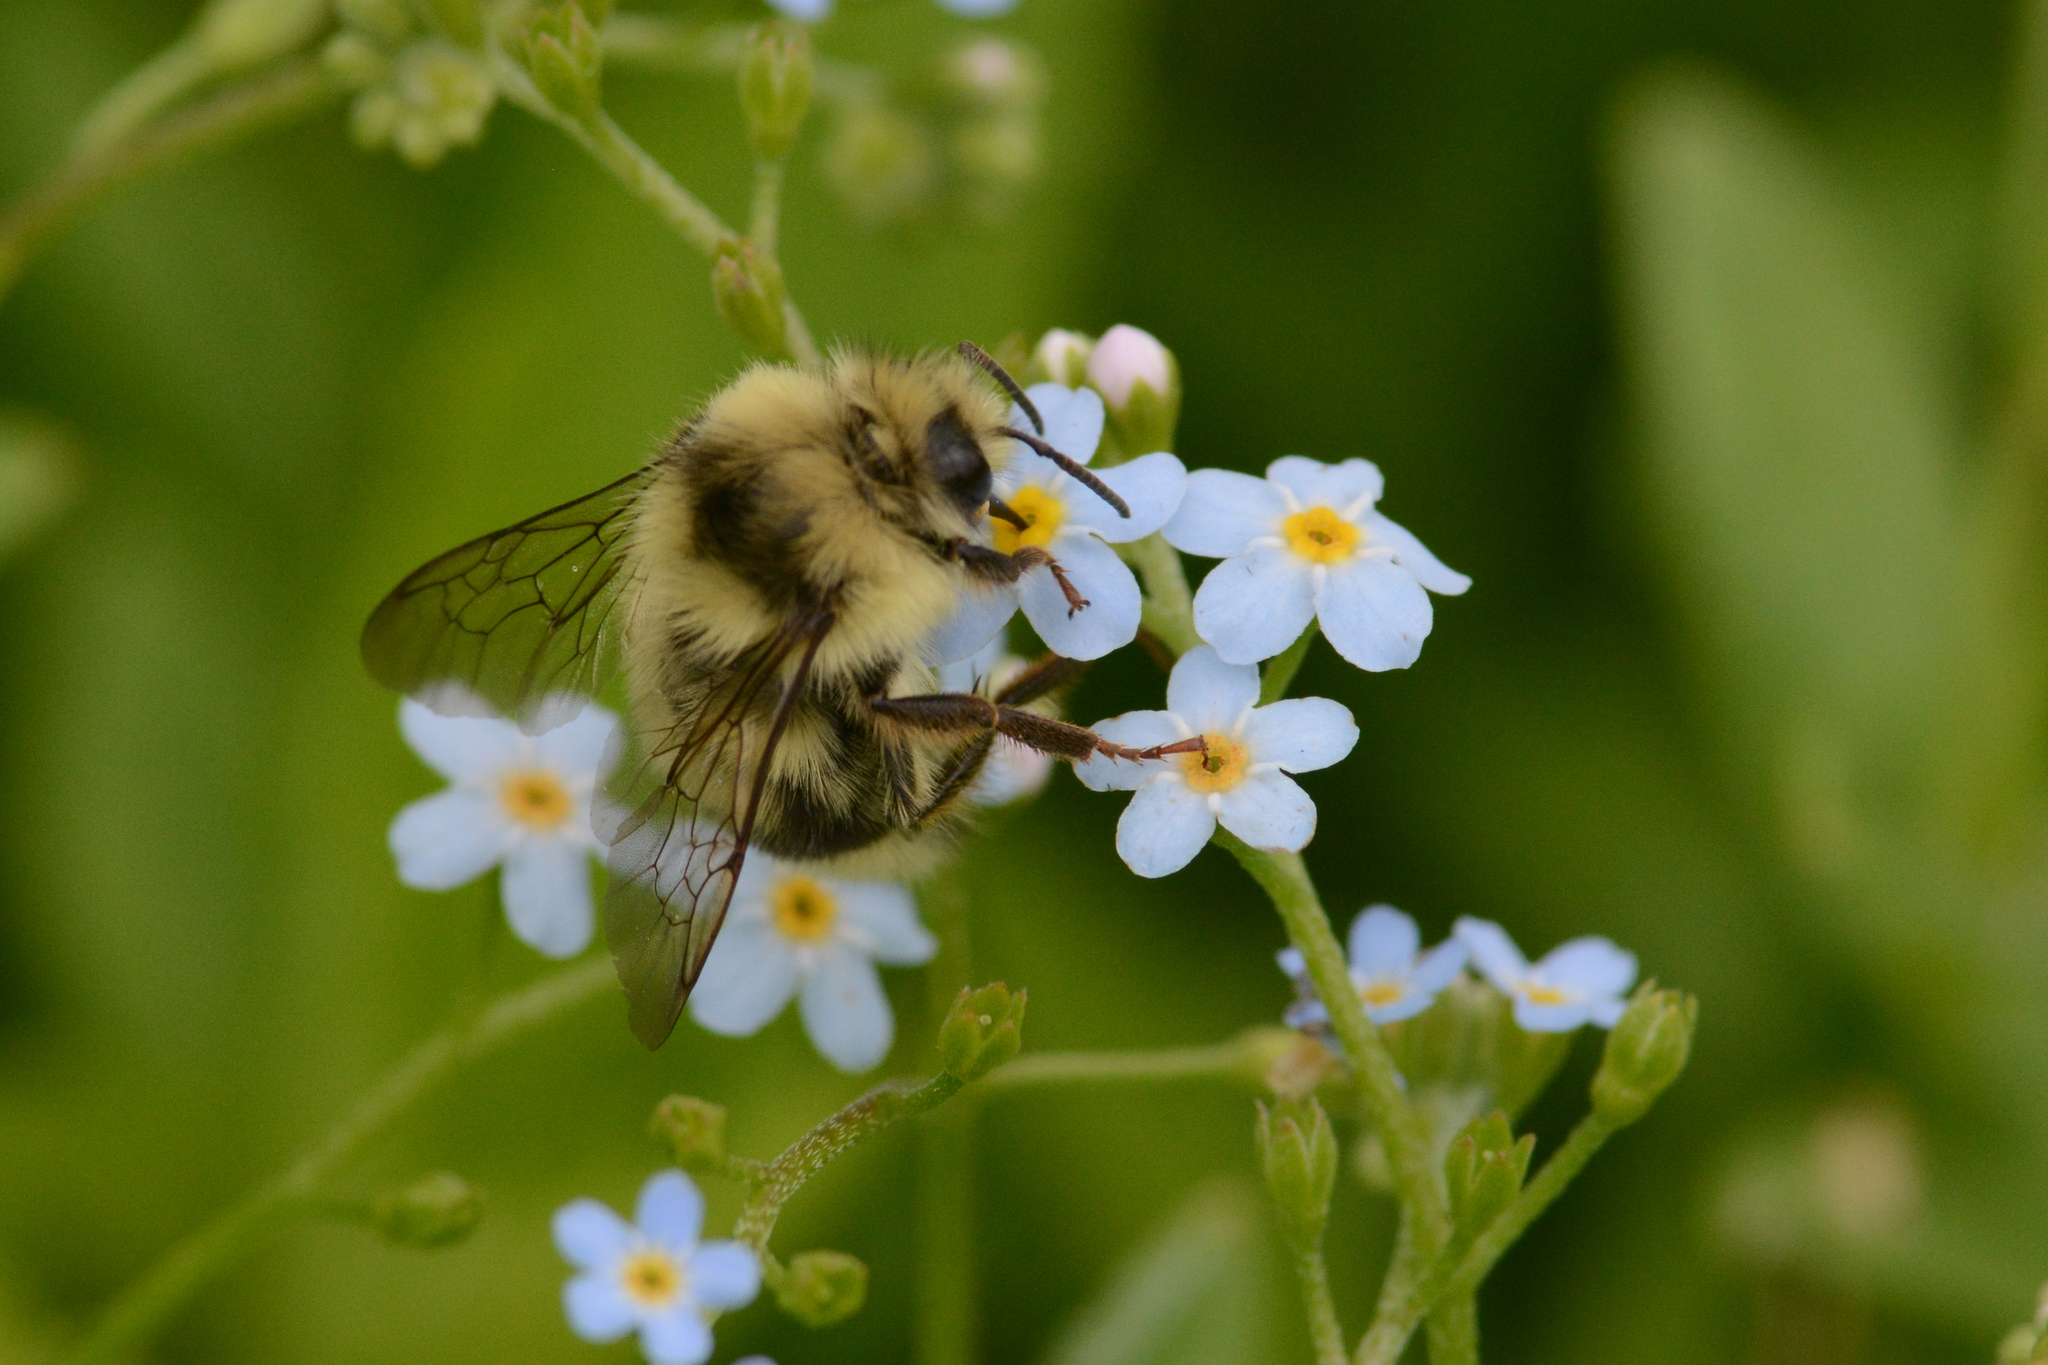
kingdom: Animalia
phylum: Arthropoda
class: Insecta
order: Hymenoptera
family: Apidae
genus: Bombus
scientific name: Bombus vancouverensis
